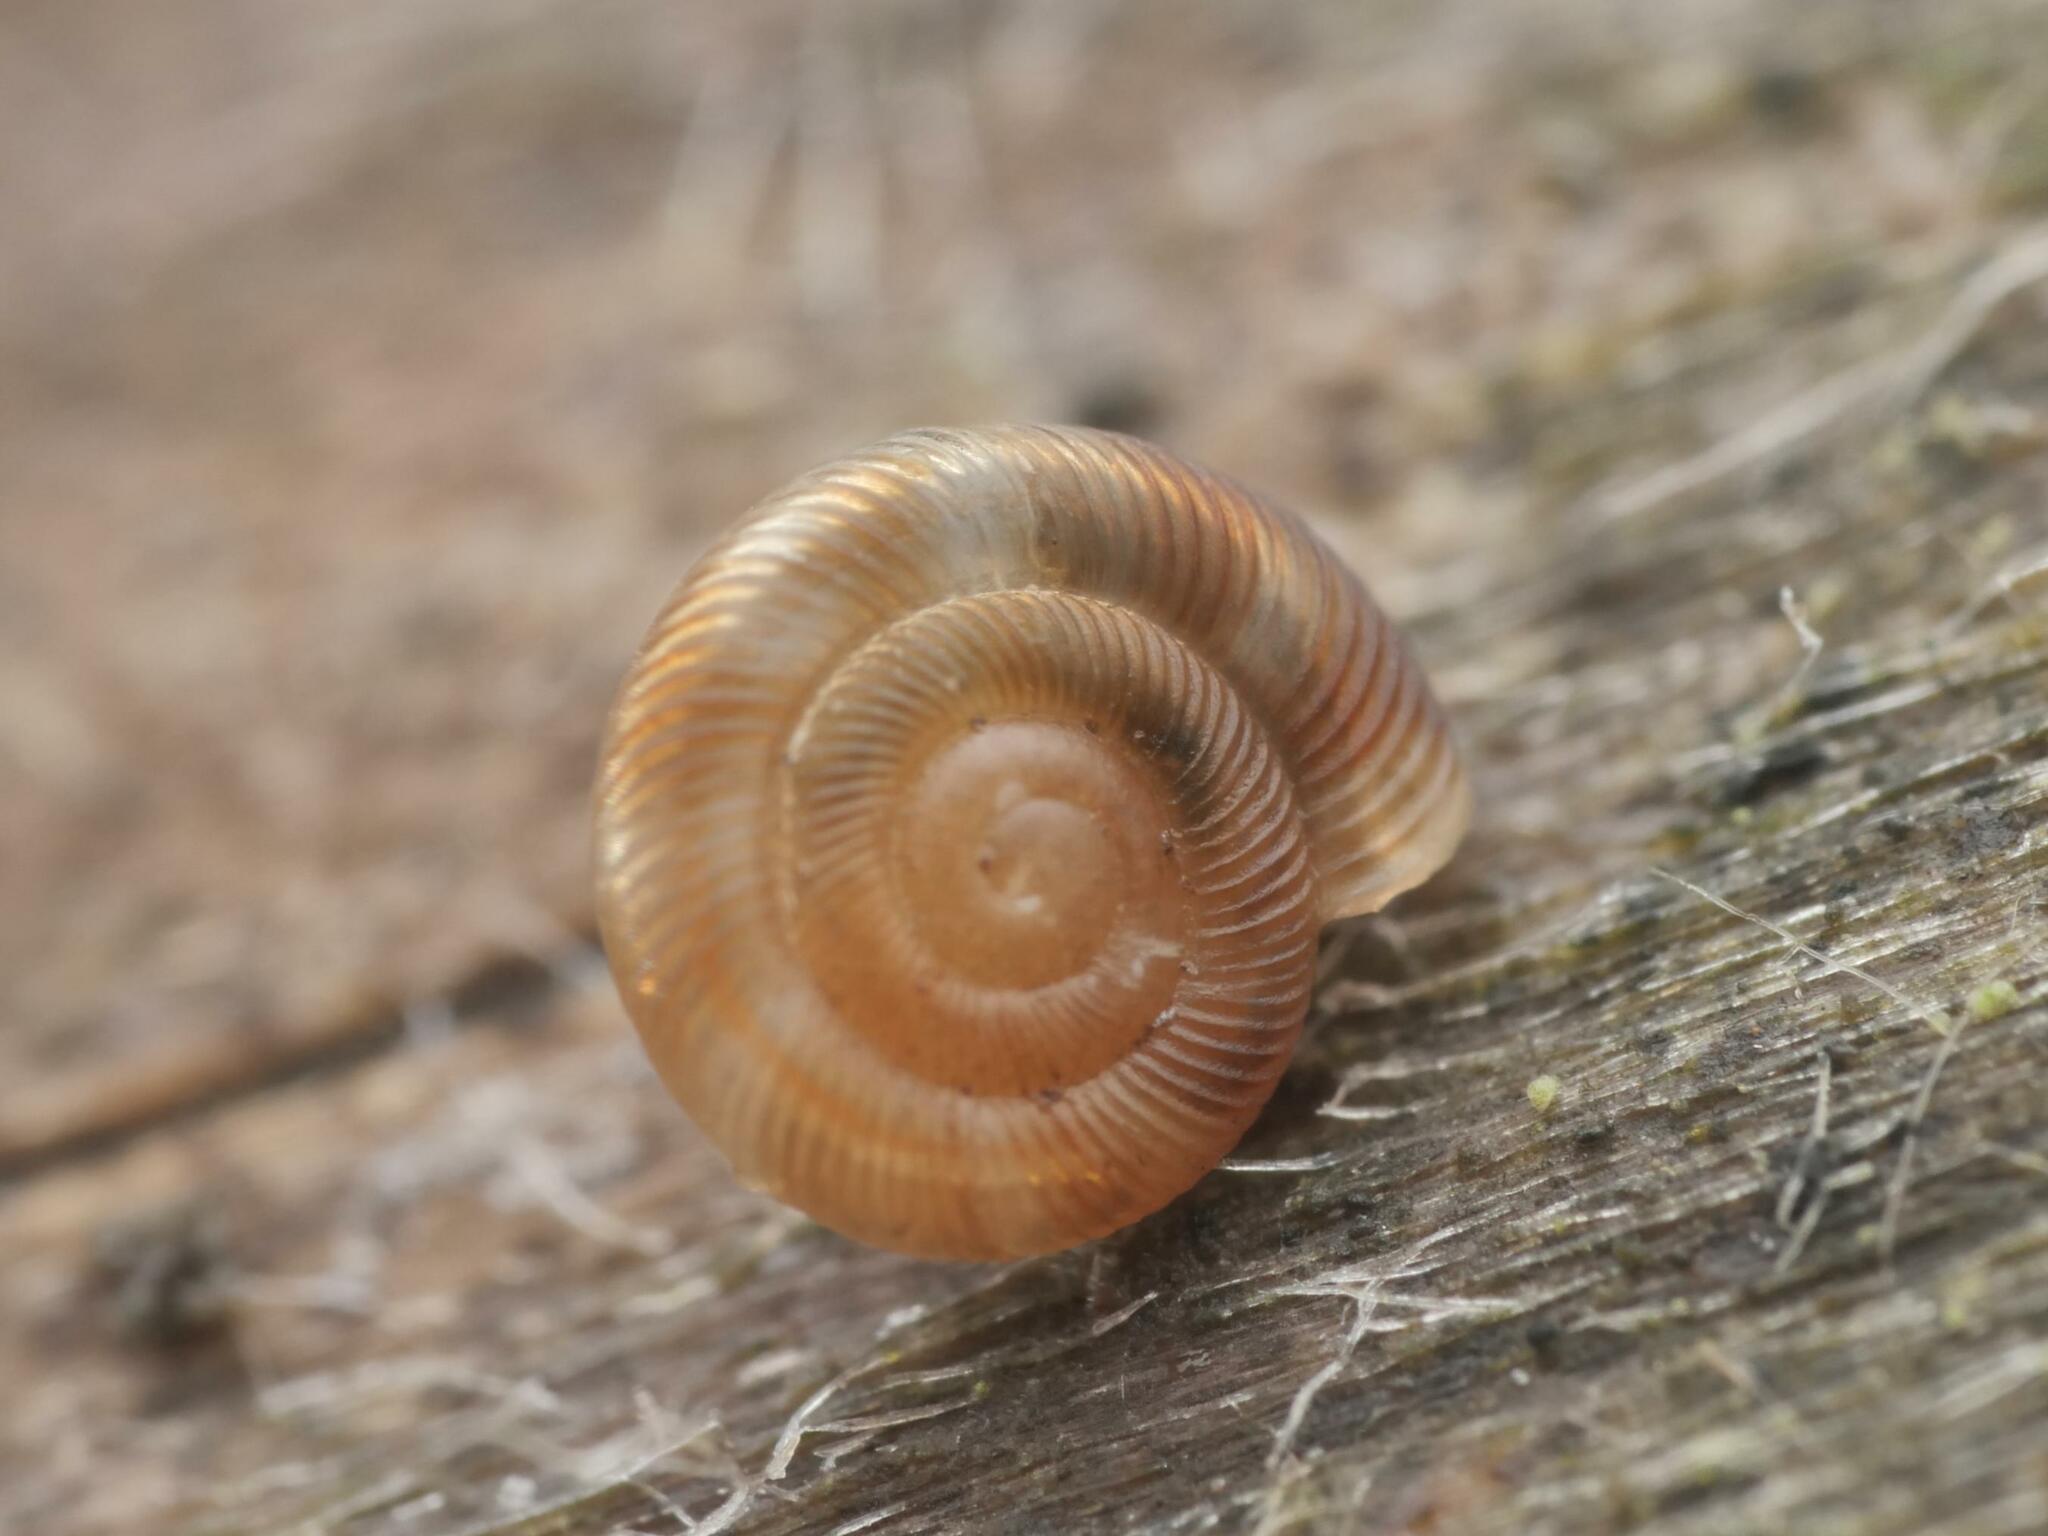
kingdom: Animalia
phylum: Mollusca
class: Gastropoda
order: Stylommatophora
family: Discidae
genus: Discus
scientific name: Discus rotundatus
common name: Rounded snail
